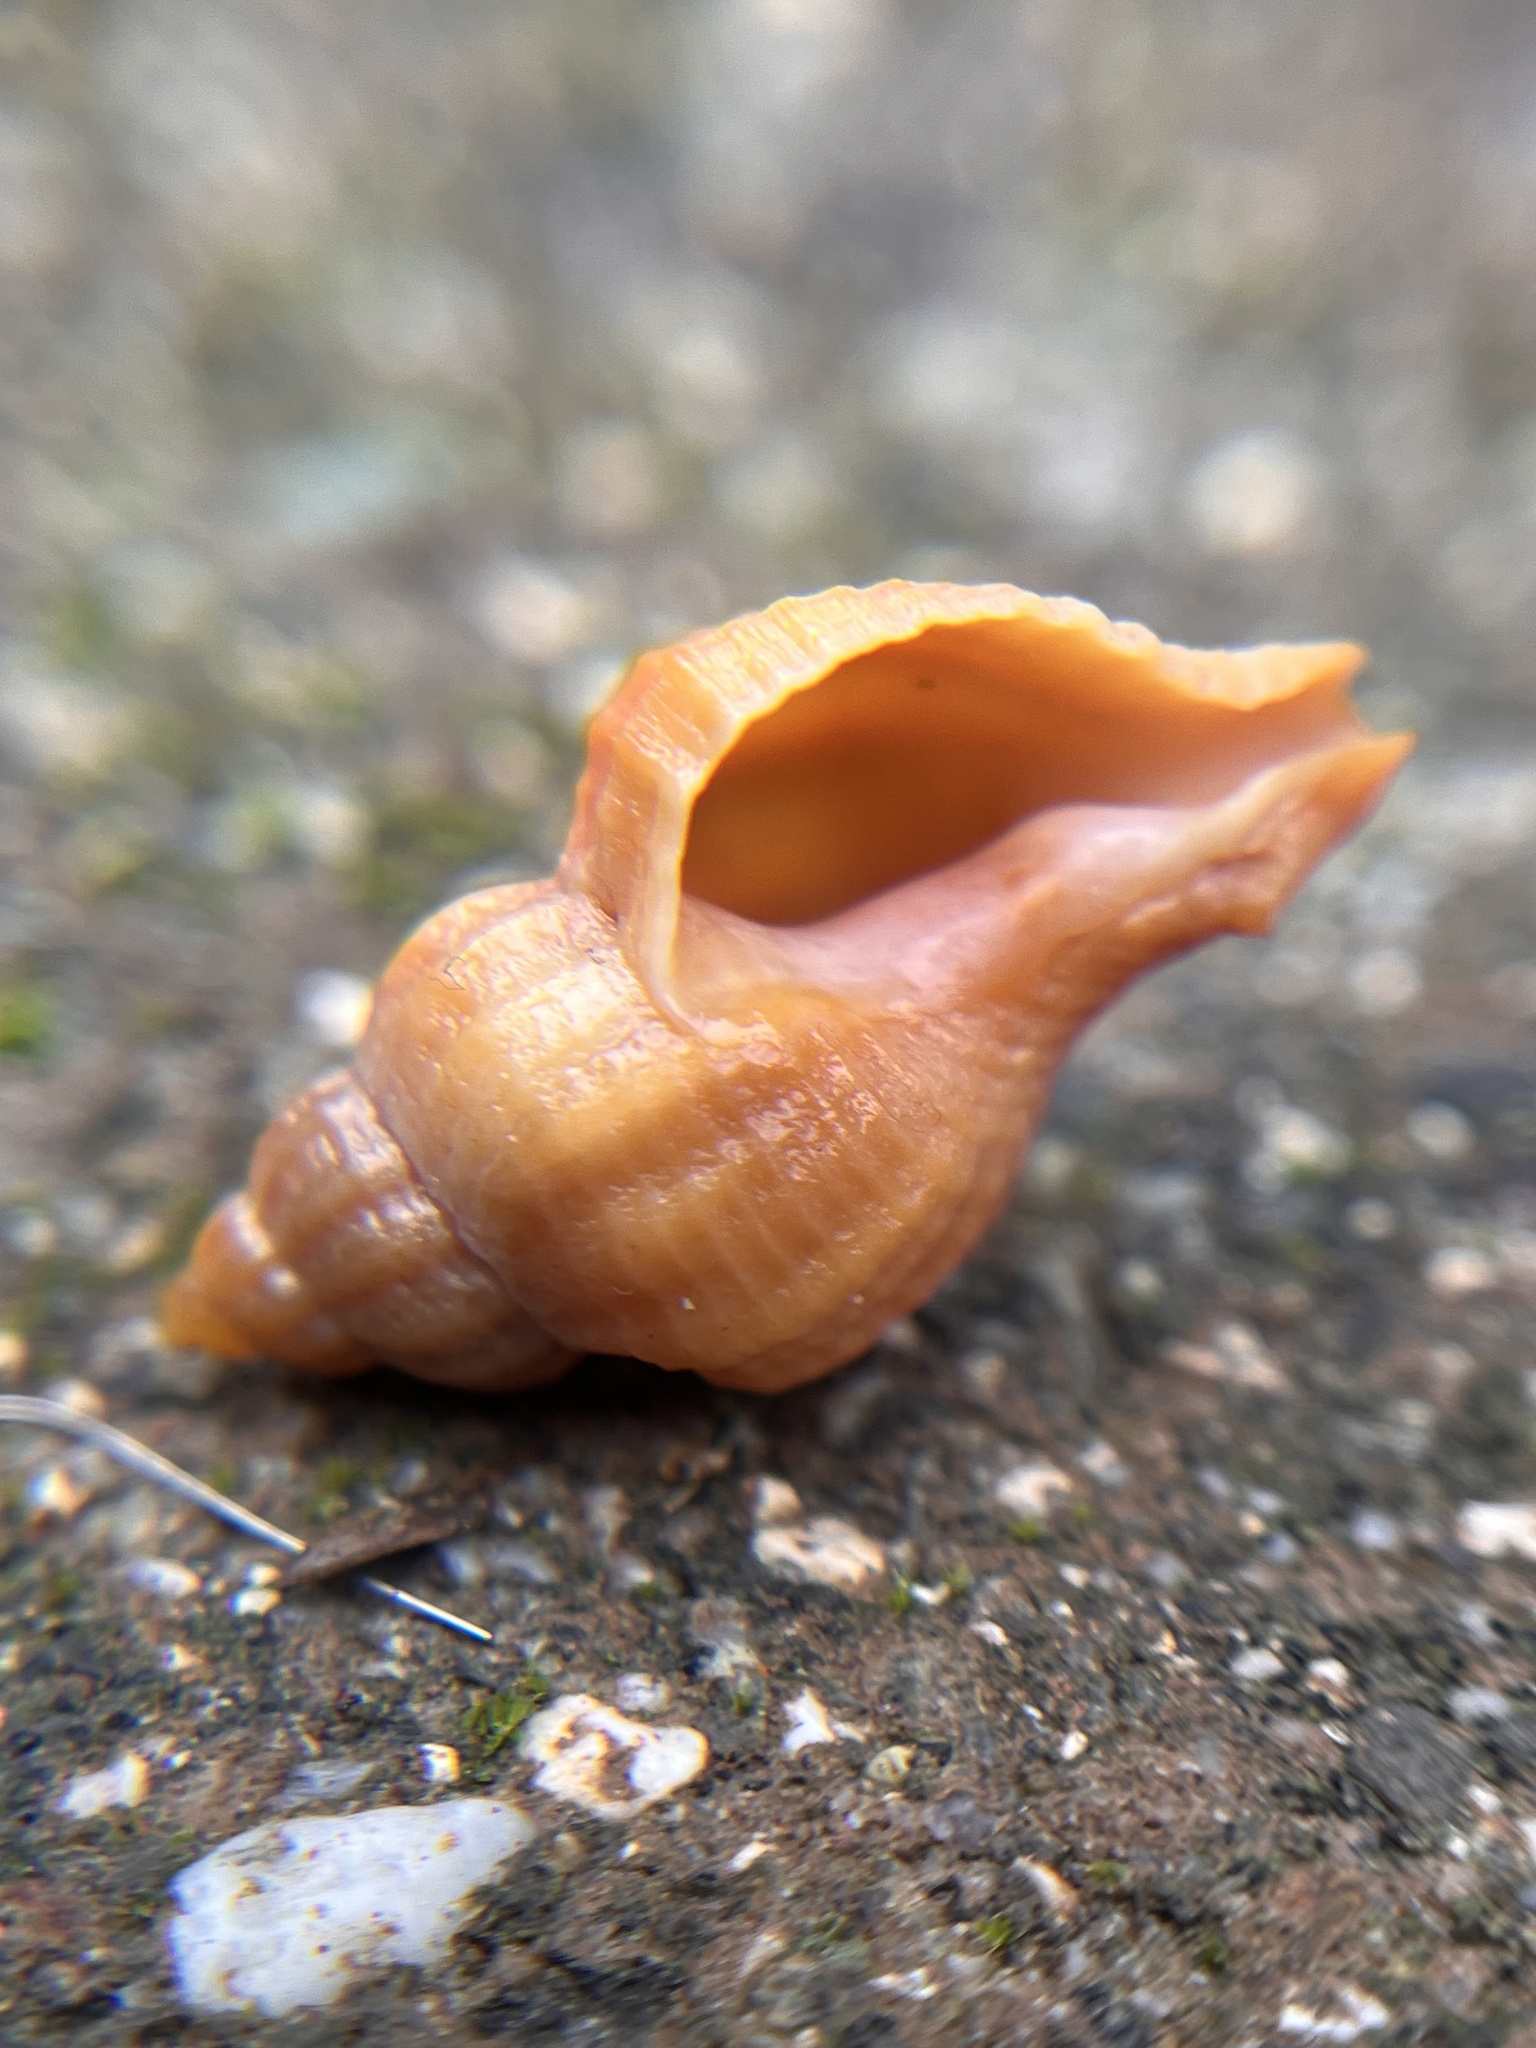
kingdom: Animalia
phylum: Mollusca
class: Gastropoda
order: Neogastropoda
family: Muricidae
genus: Urosalpinx
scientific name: Urosalpinx cinerea
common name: American sting winkle
